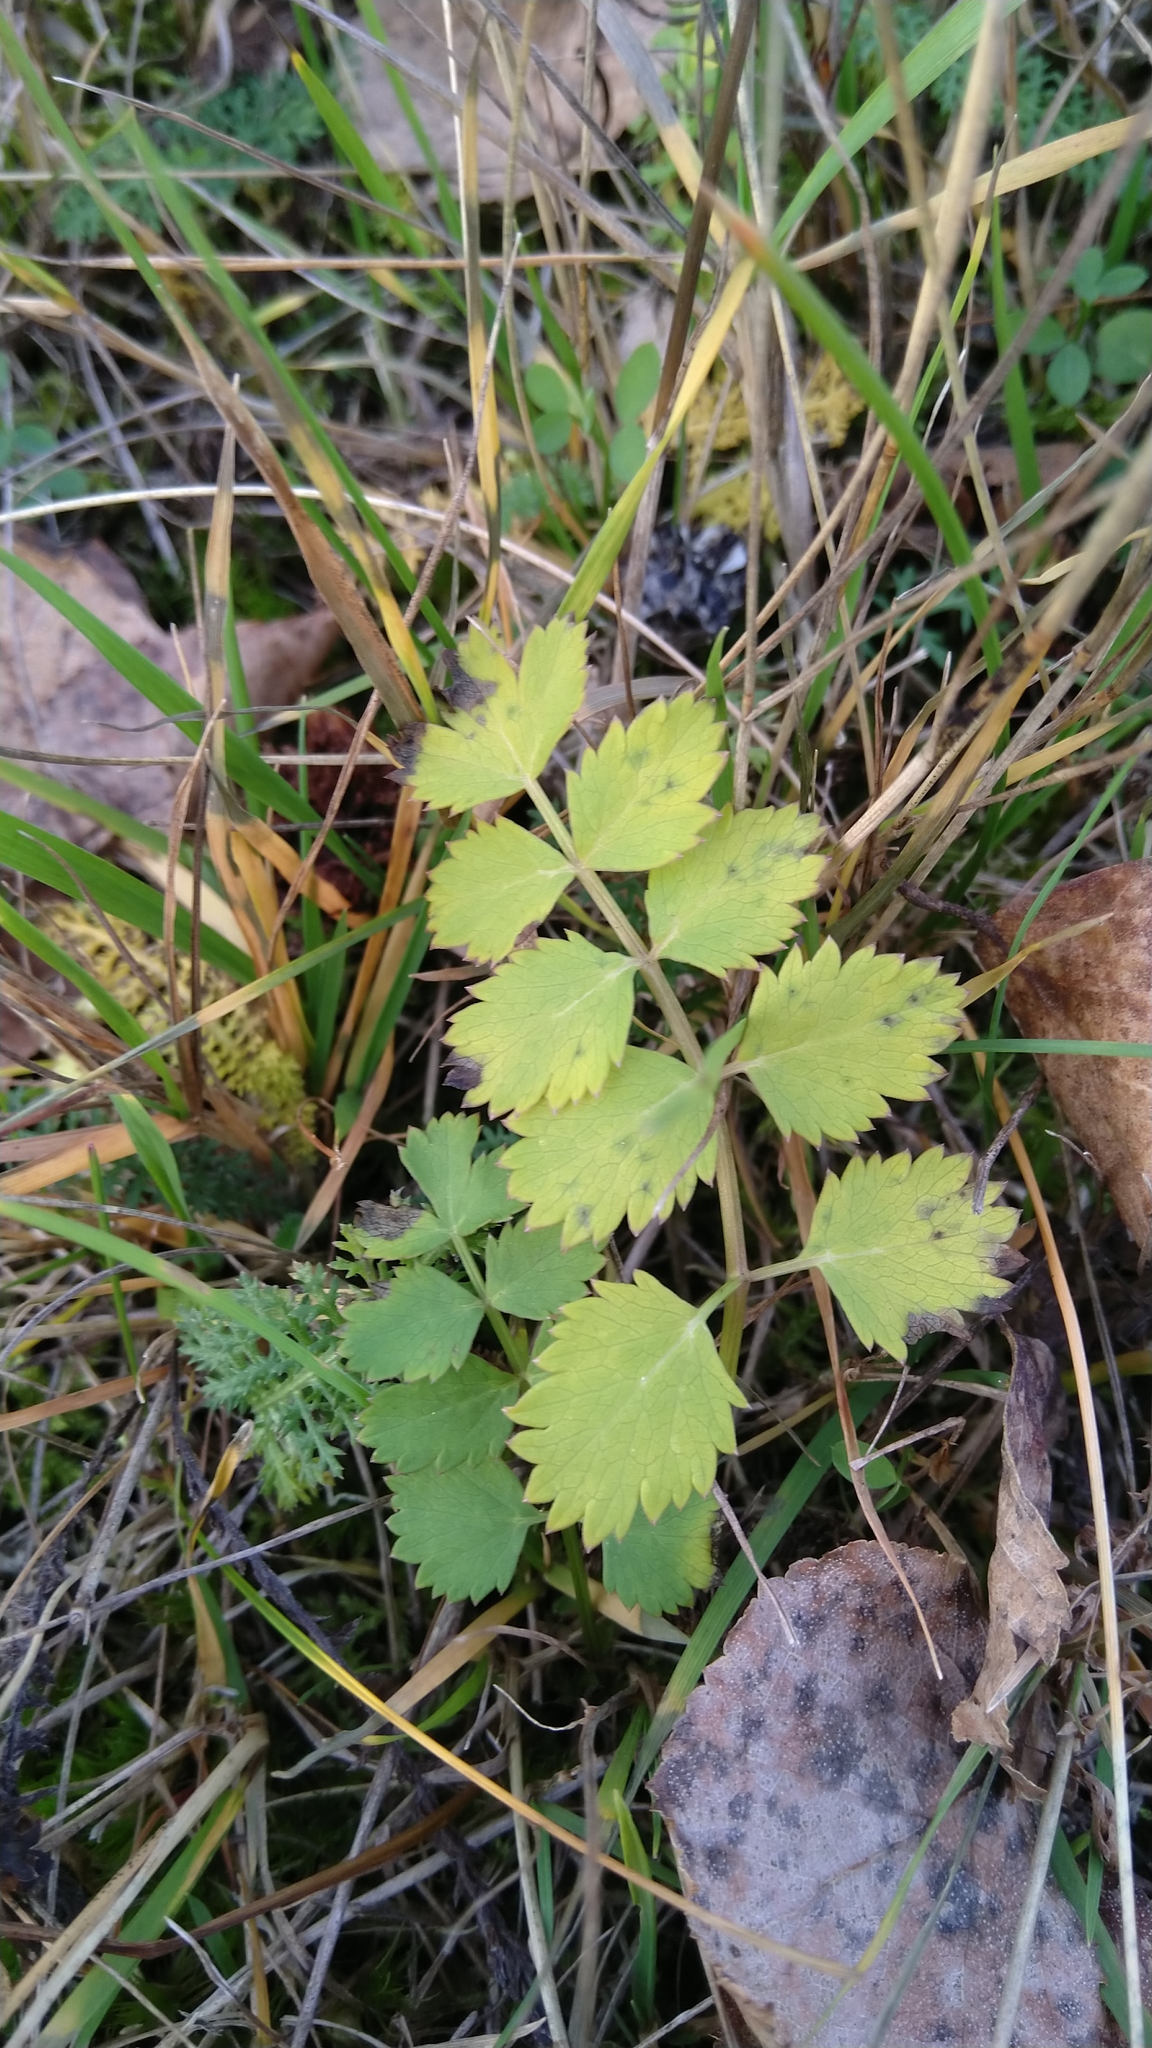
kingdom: Plantae
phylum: Tracheophyta
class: Magnoliopsida
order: Apiales
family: Apiaceae
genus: Pimpinella
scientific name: Pimpinella saxifraga
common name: Burnet-saxifrage
